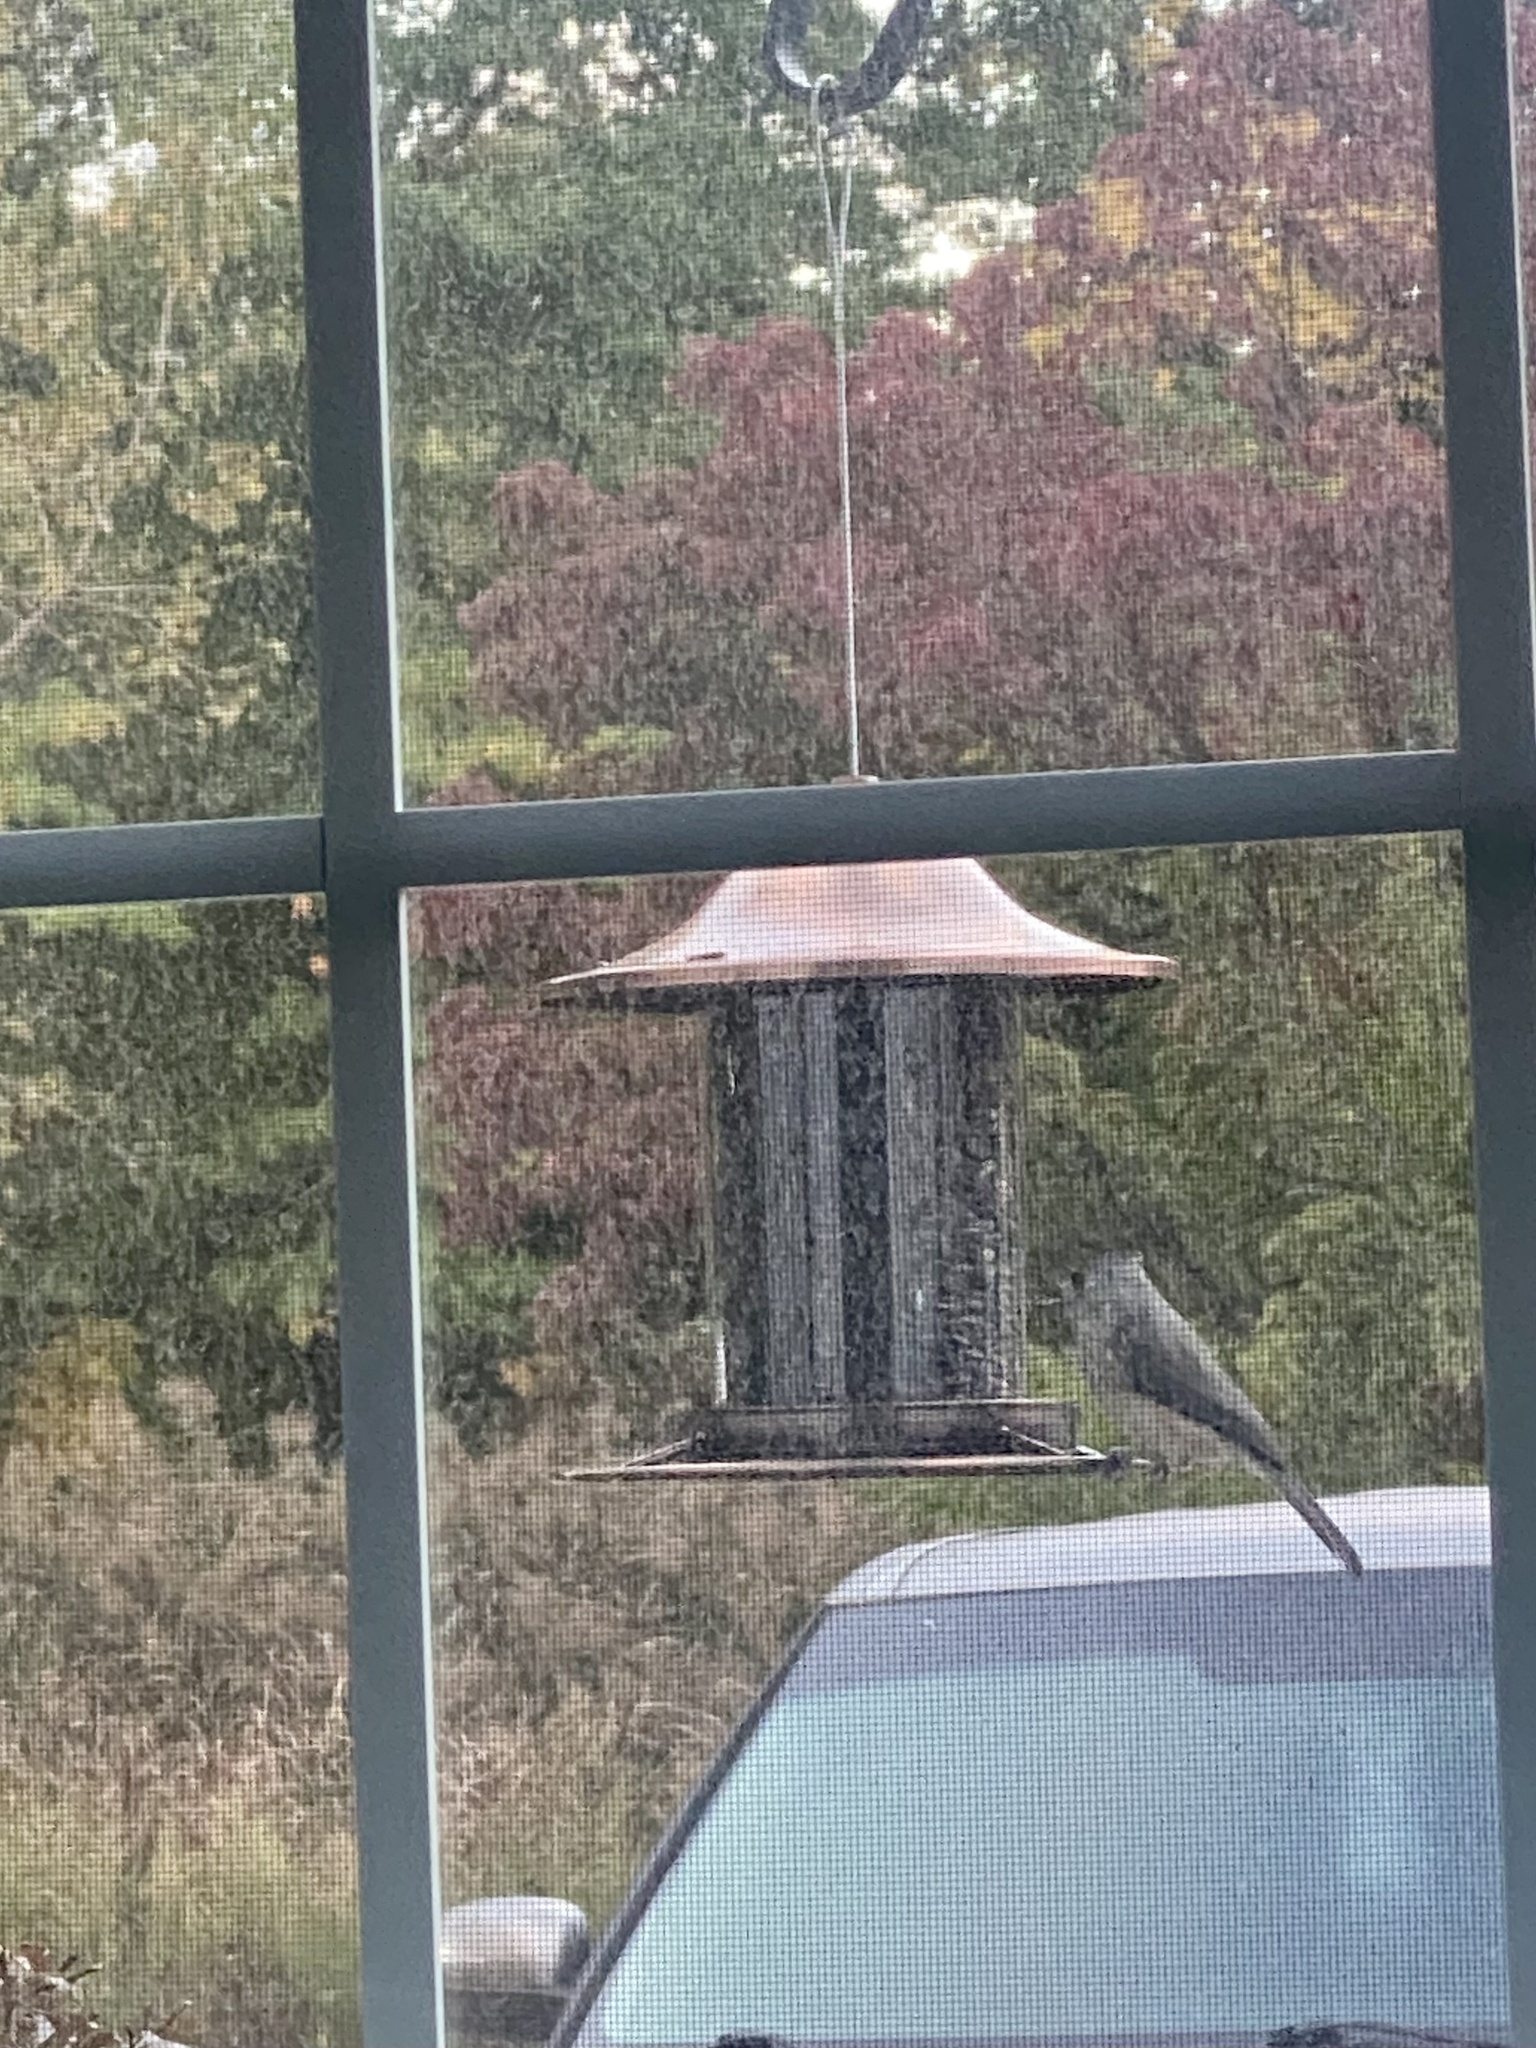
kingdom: Animalia
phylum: Chordata
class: Aves
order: Passeriformes
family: Paridae
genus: Baeolophus
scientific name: Baeolophus bicolor
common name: Tufted titmouse
